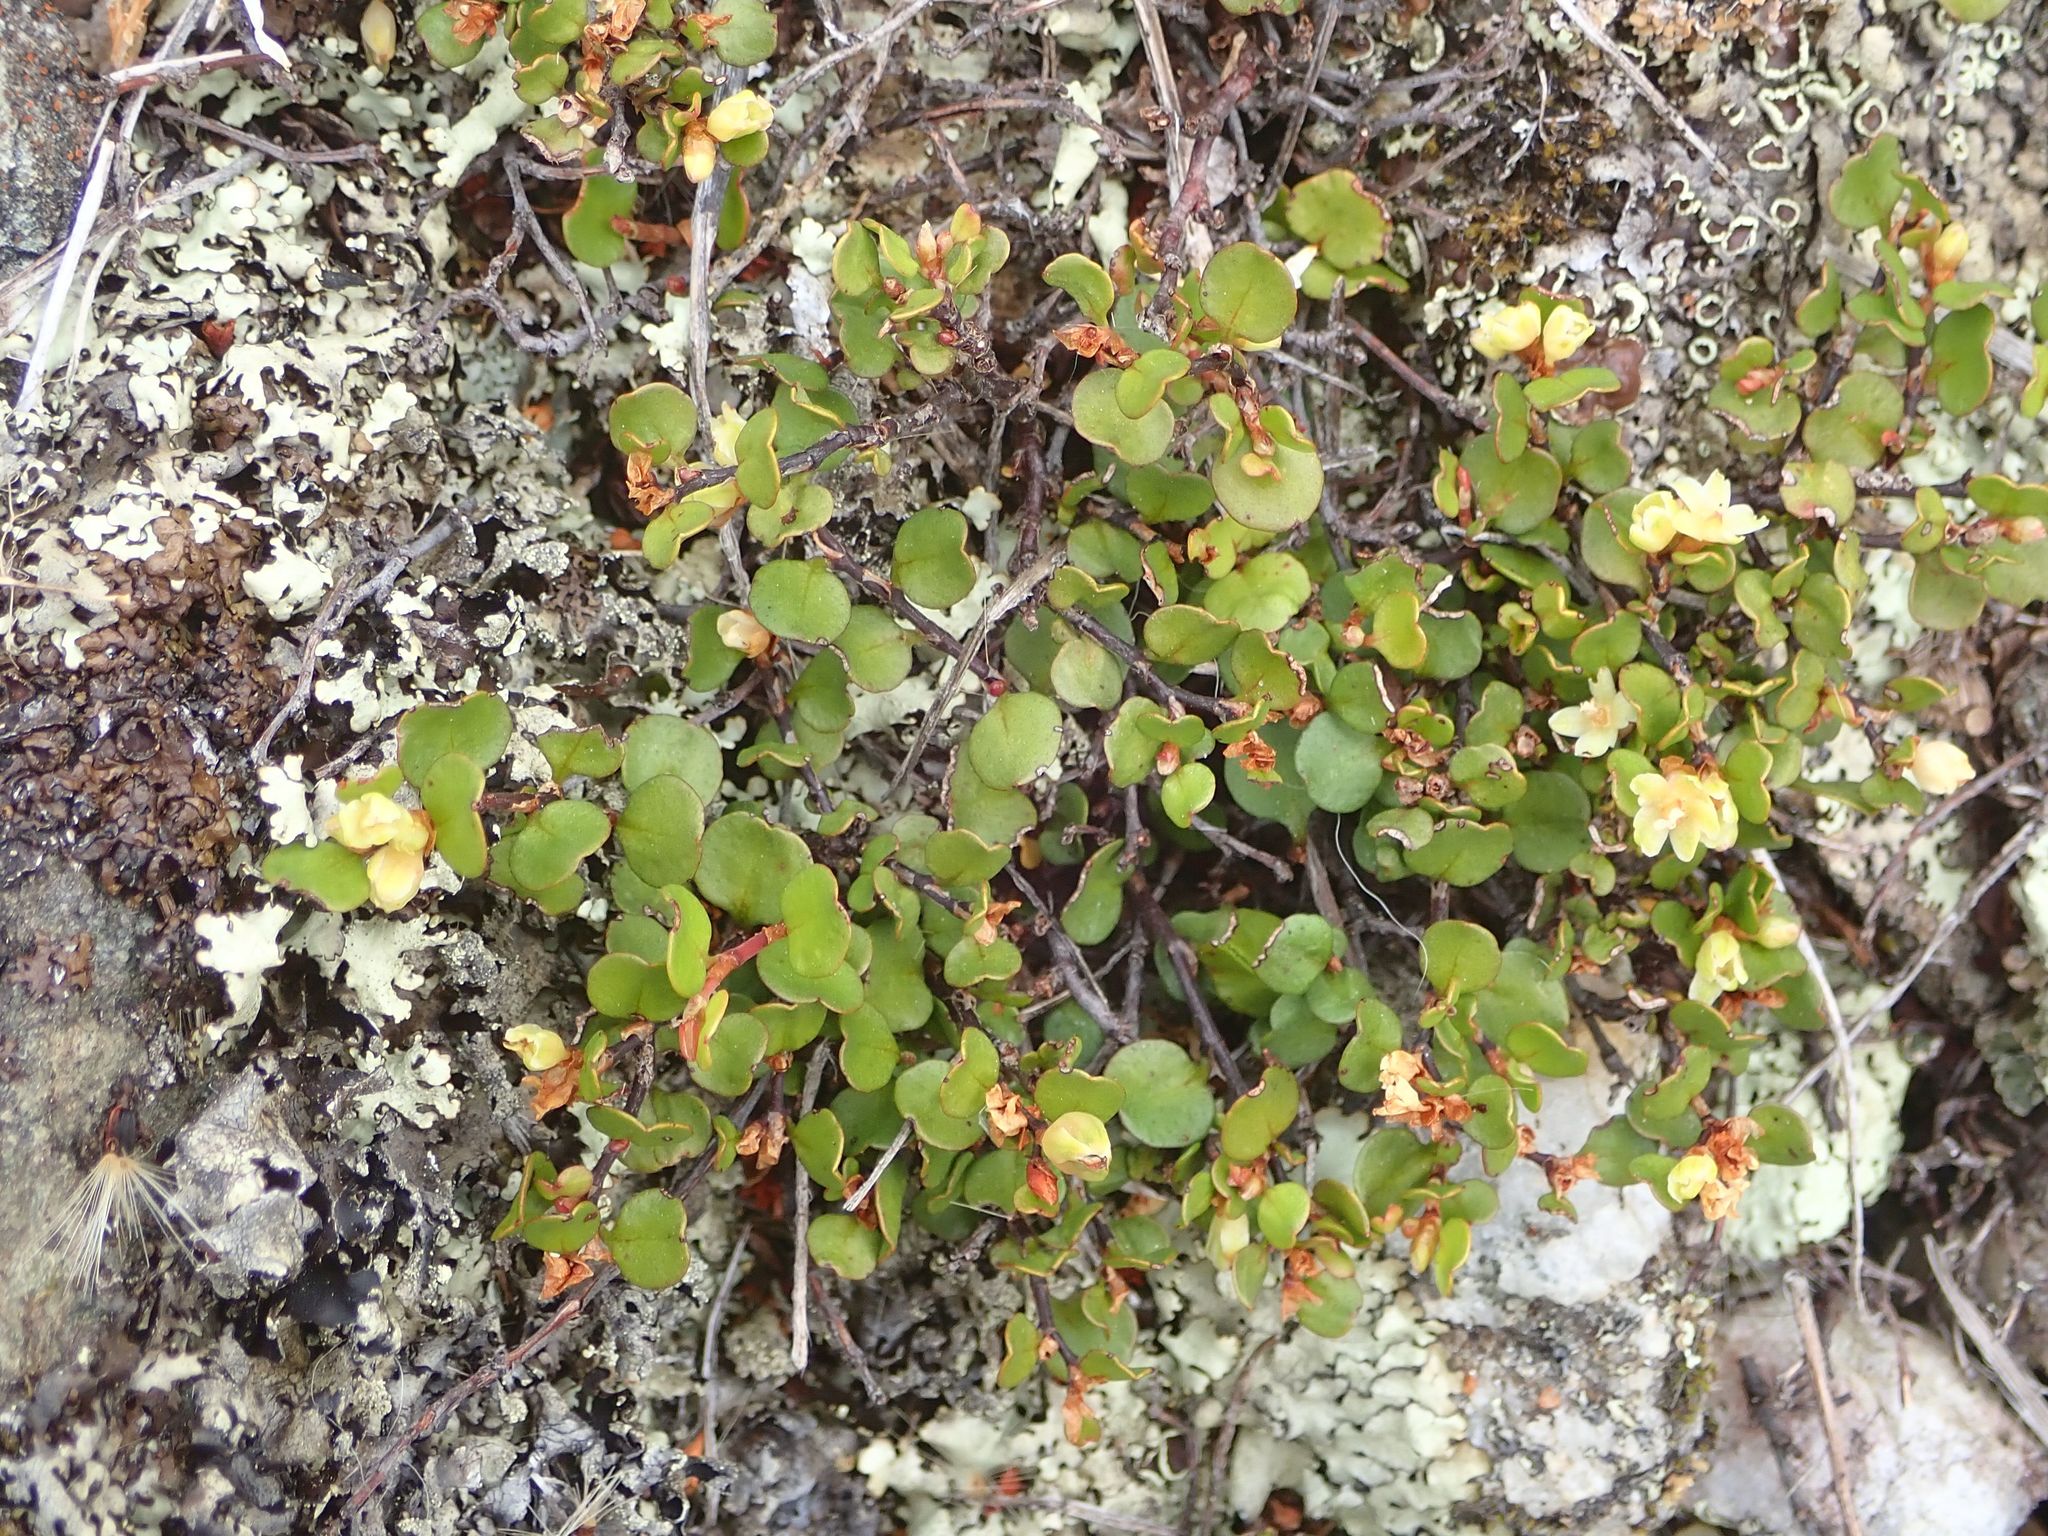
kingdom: Plantae
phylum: Tracheophyta
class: Magnoliopsida
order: Caryophyllales
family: Polygonaceae
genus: Muehlenbeckia
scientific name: Muehlenbeckia axillaris
